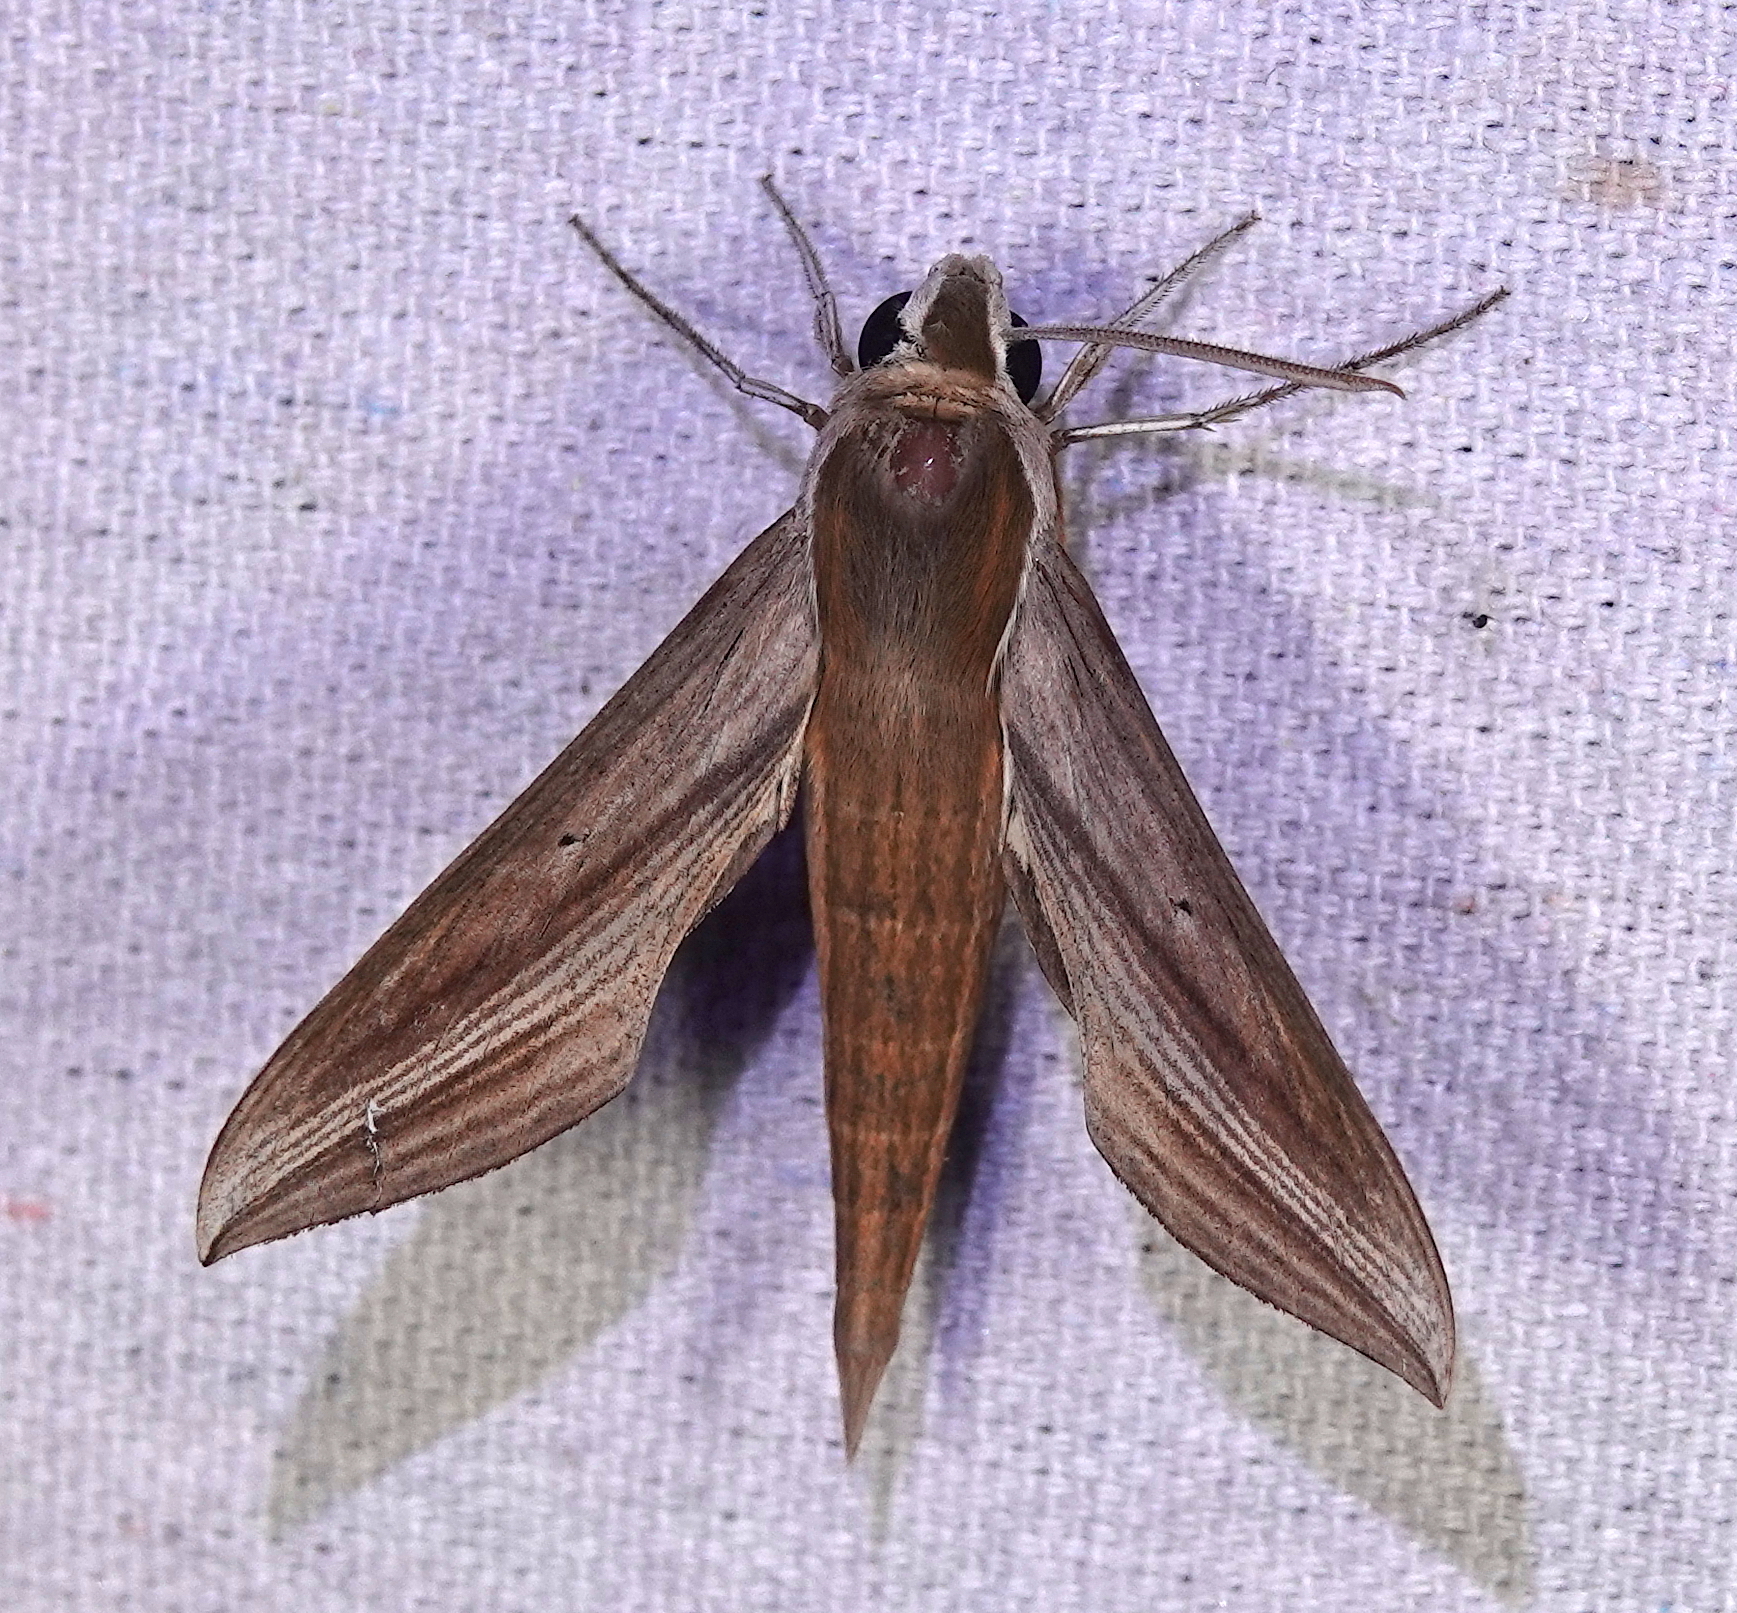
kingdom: Animalia
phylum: Arthropoda
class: Insecta
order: Lepidoptera
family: Sphingidae
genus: Xylophanes
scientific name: Xylophanes tersa
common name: Tersa sphinx
